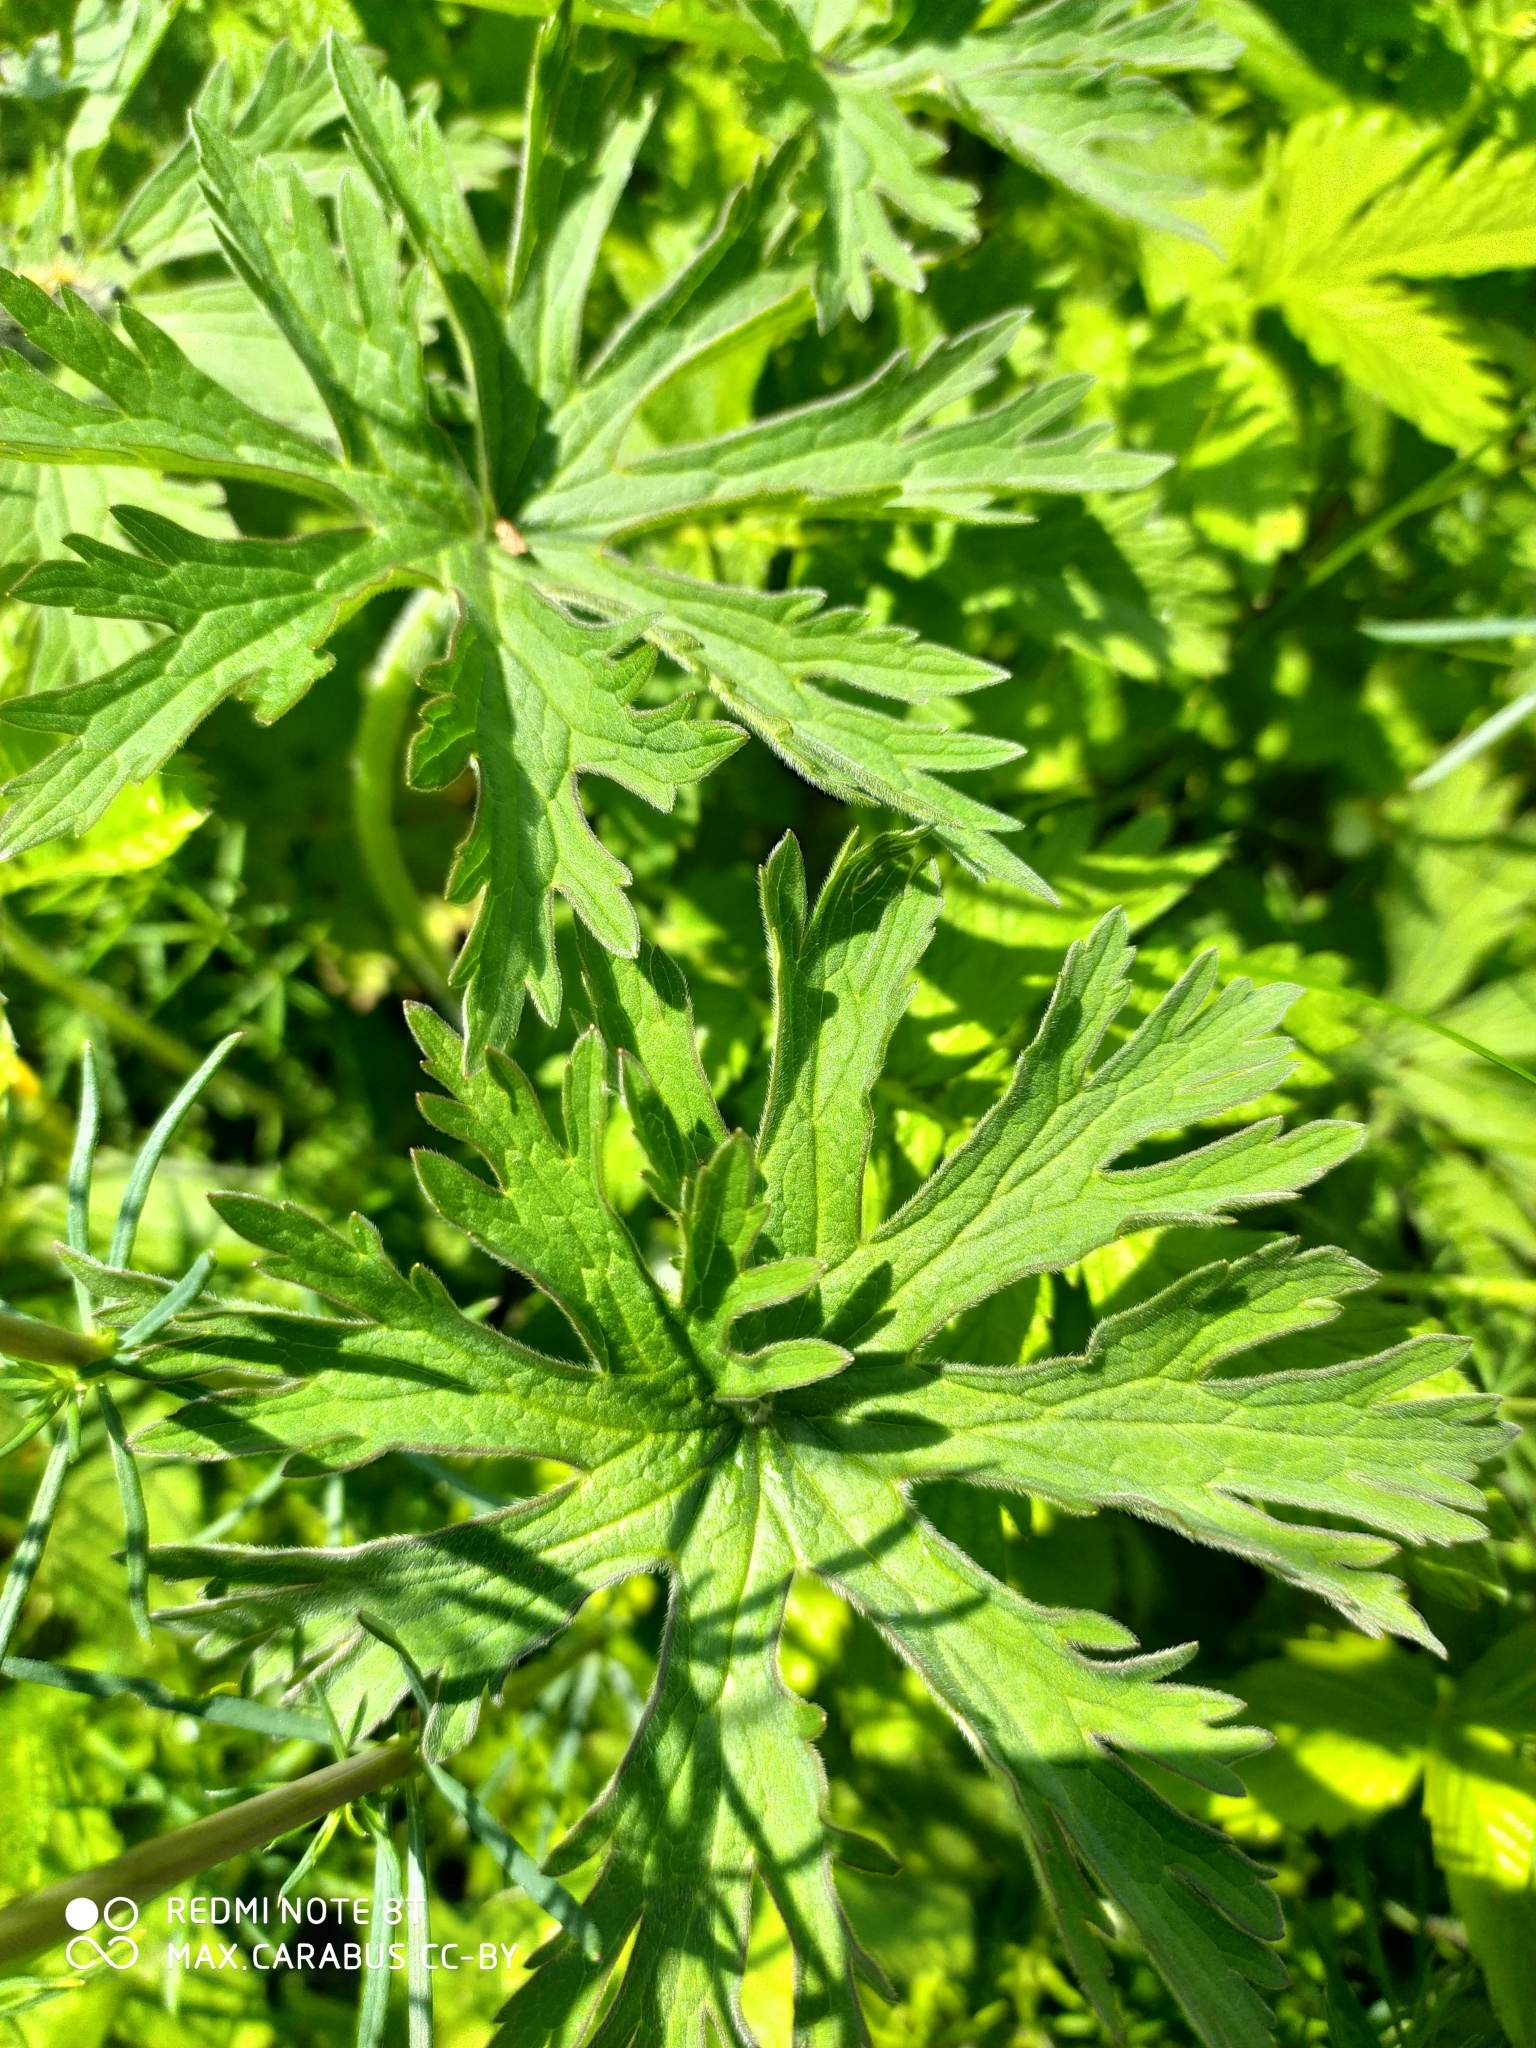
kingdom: Plantae
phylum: Tracheophyta
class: Magnoliopsida
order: Geraniales
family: Geraniaceae
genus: Geranium
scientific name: Geranium pratense
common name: Meadow crane's-bill
